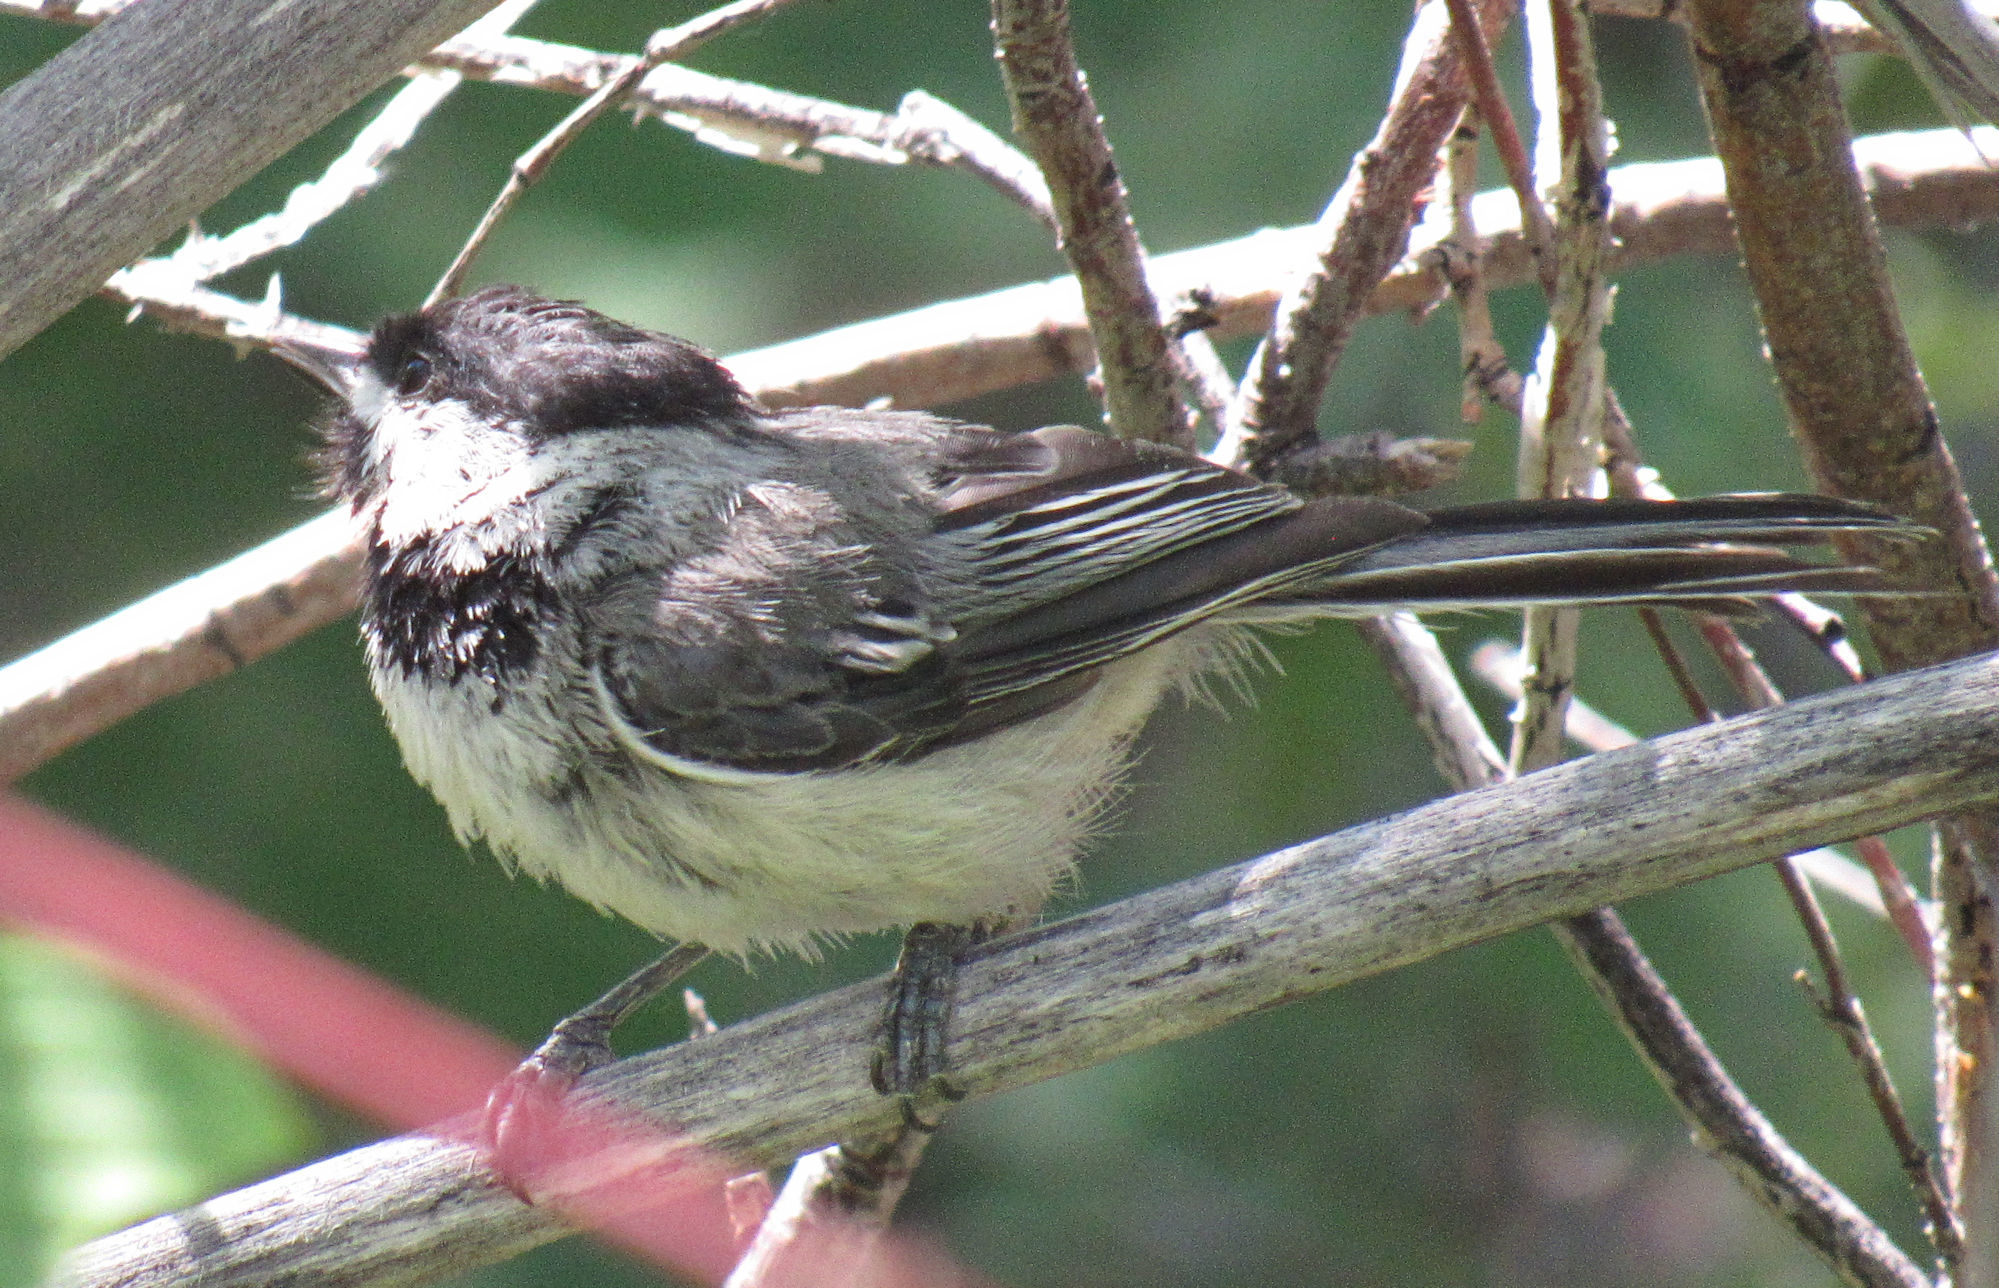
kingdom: Animalia
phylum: Chordata
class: Aves
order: Passeriformes
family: Paridae
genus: Poecile
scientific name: Poecile atricapillus
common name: Black-capped chickadee
